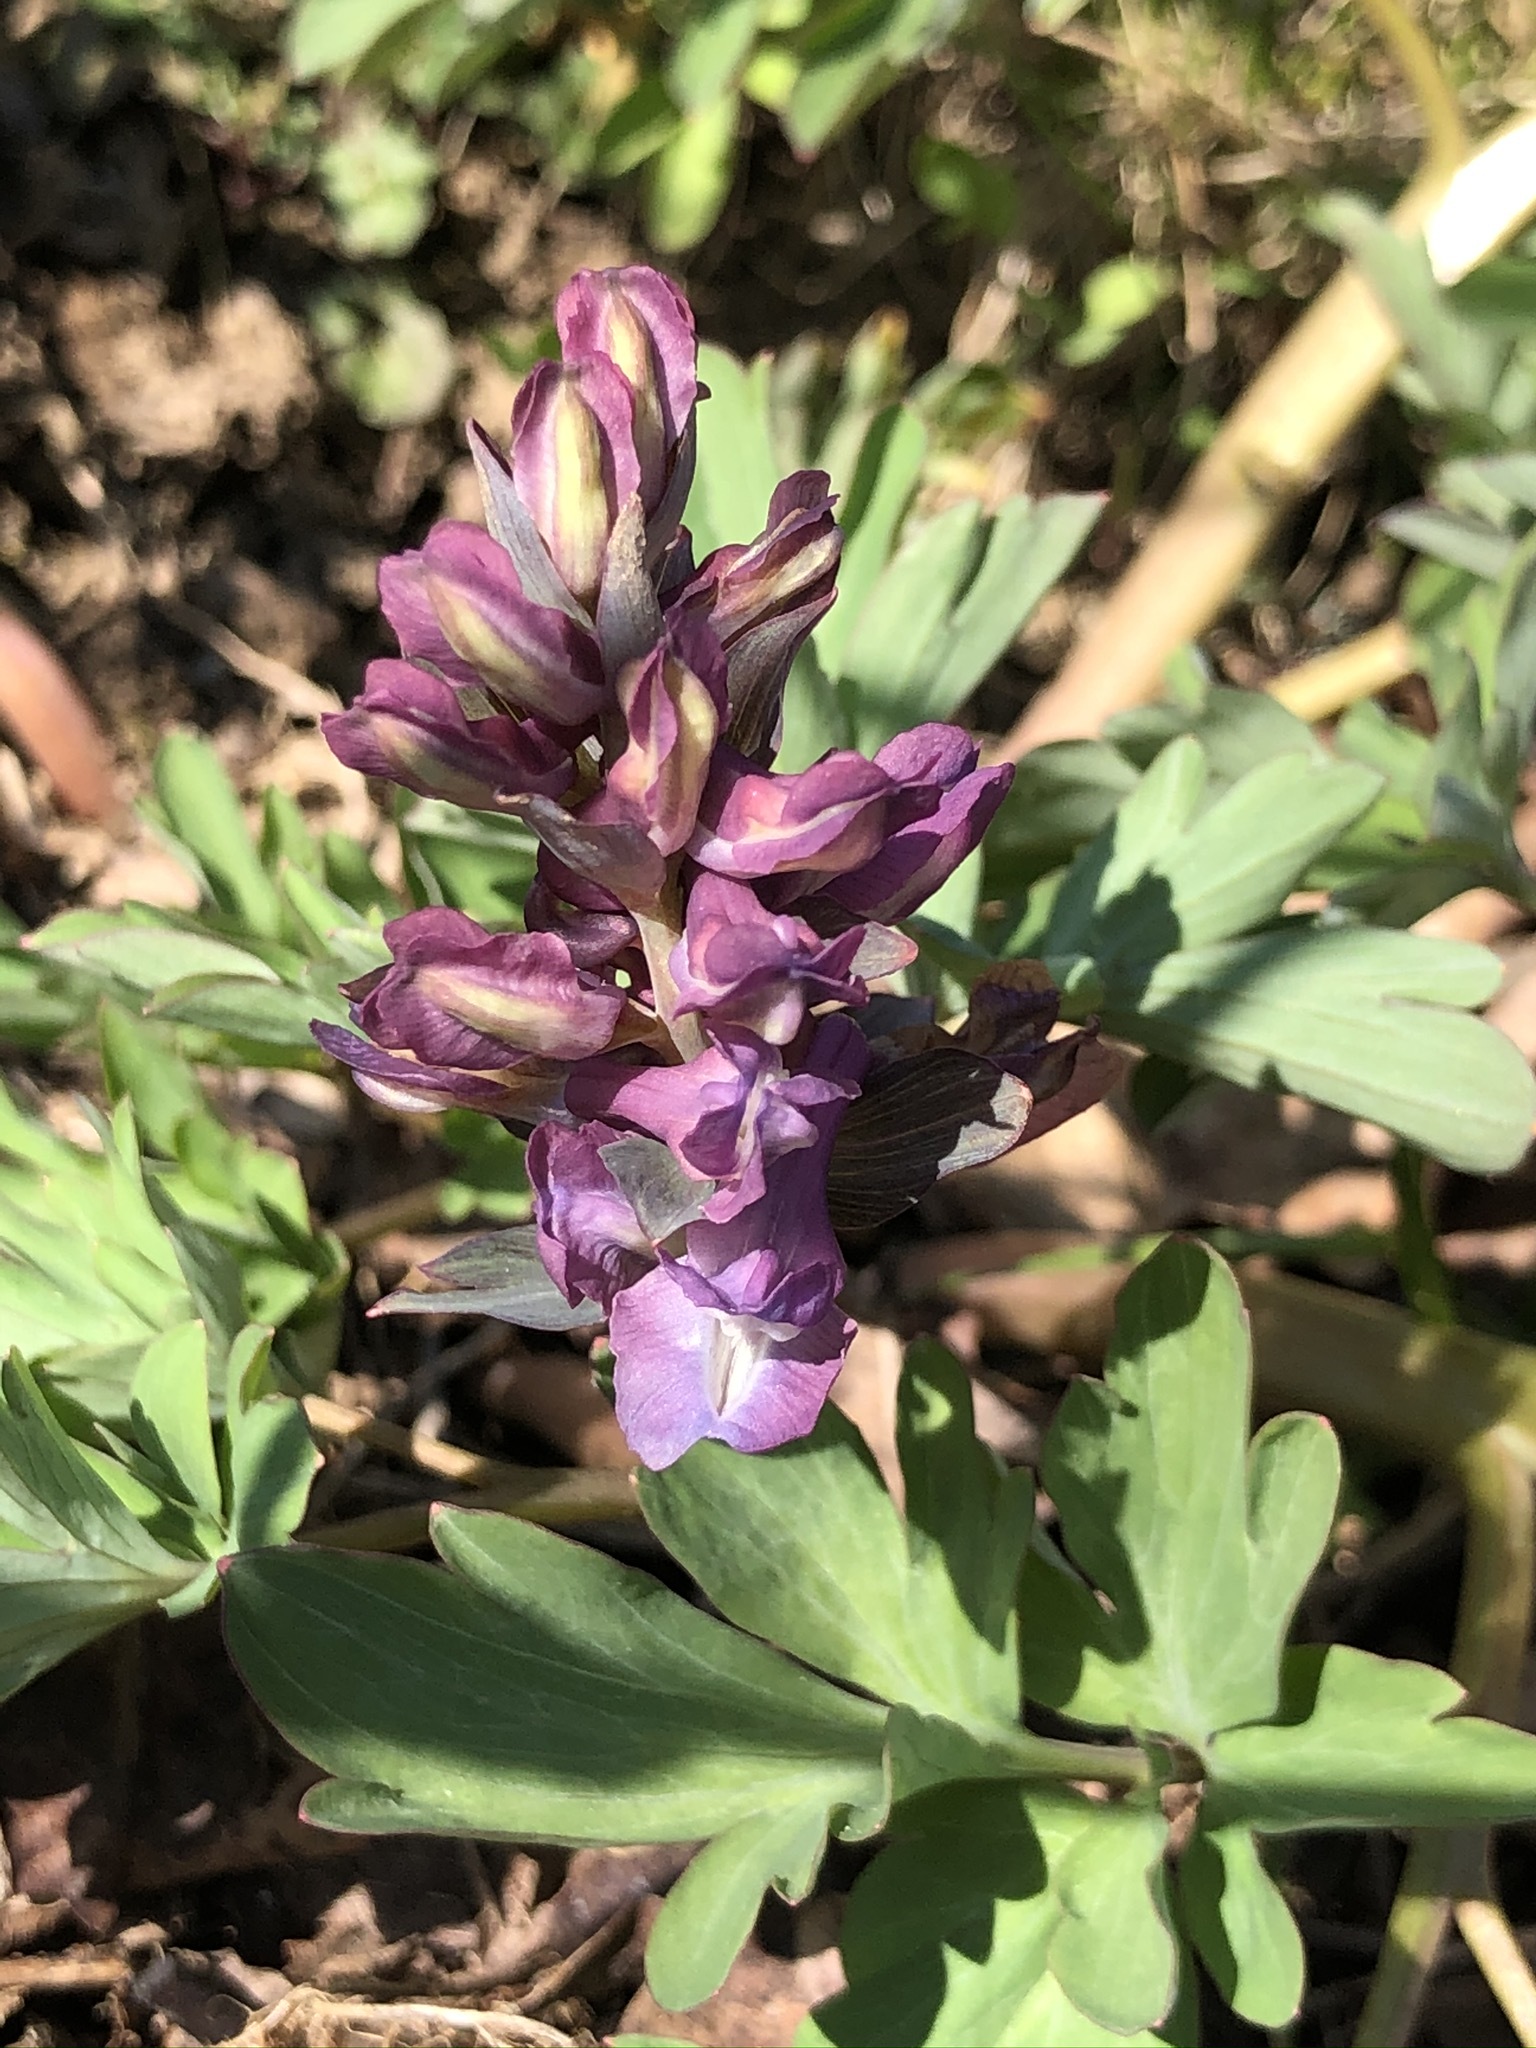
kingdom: Plantae
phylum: Tracheophyta
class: Magnoliopsida
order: Ranunculales
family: Papaveraceae
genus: Corydalis
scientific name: Corydalis cava
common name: Hollowroot
